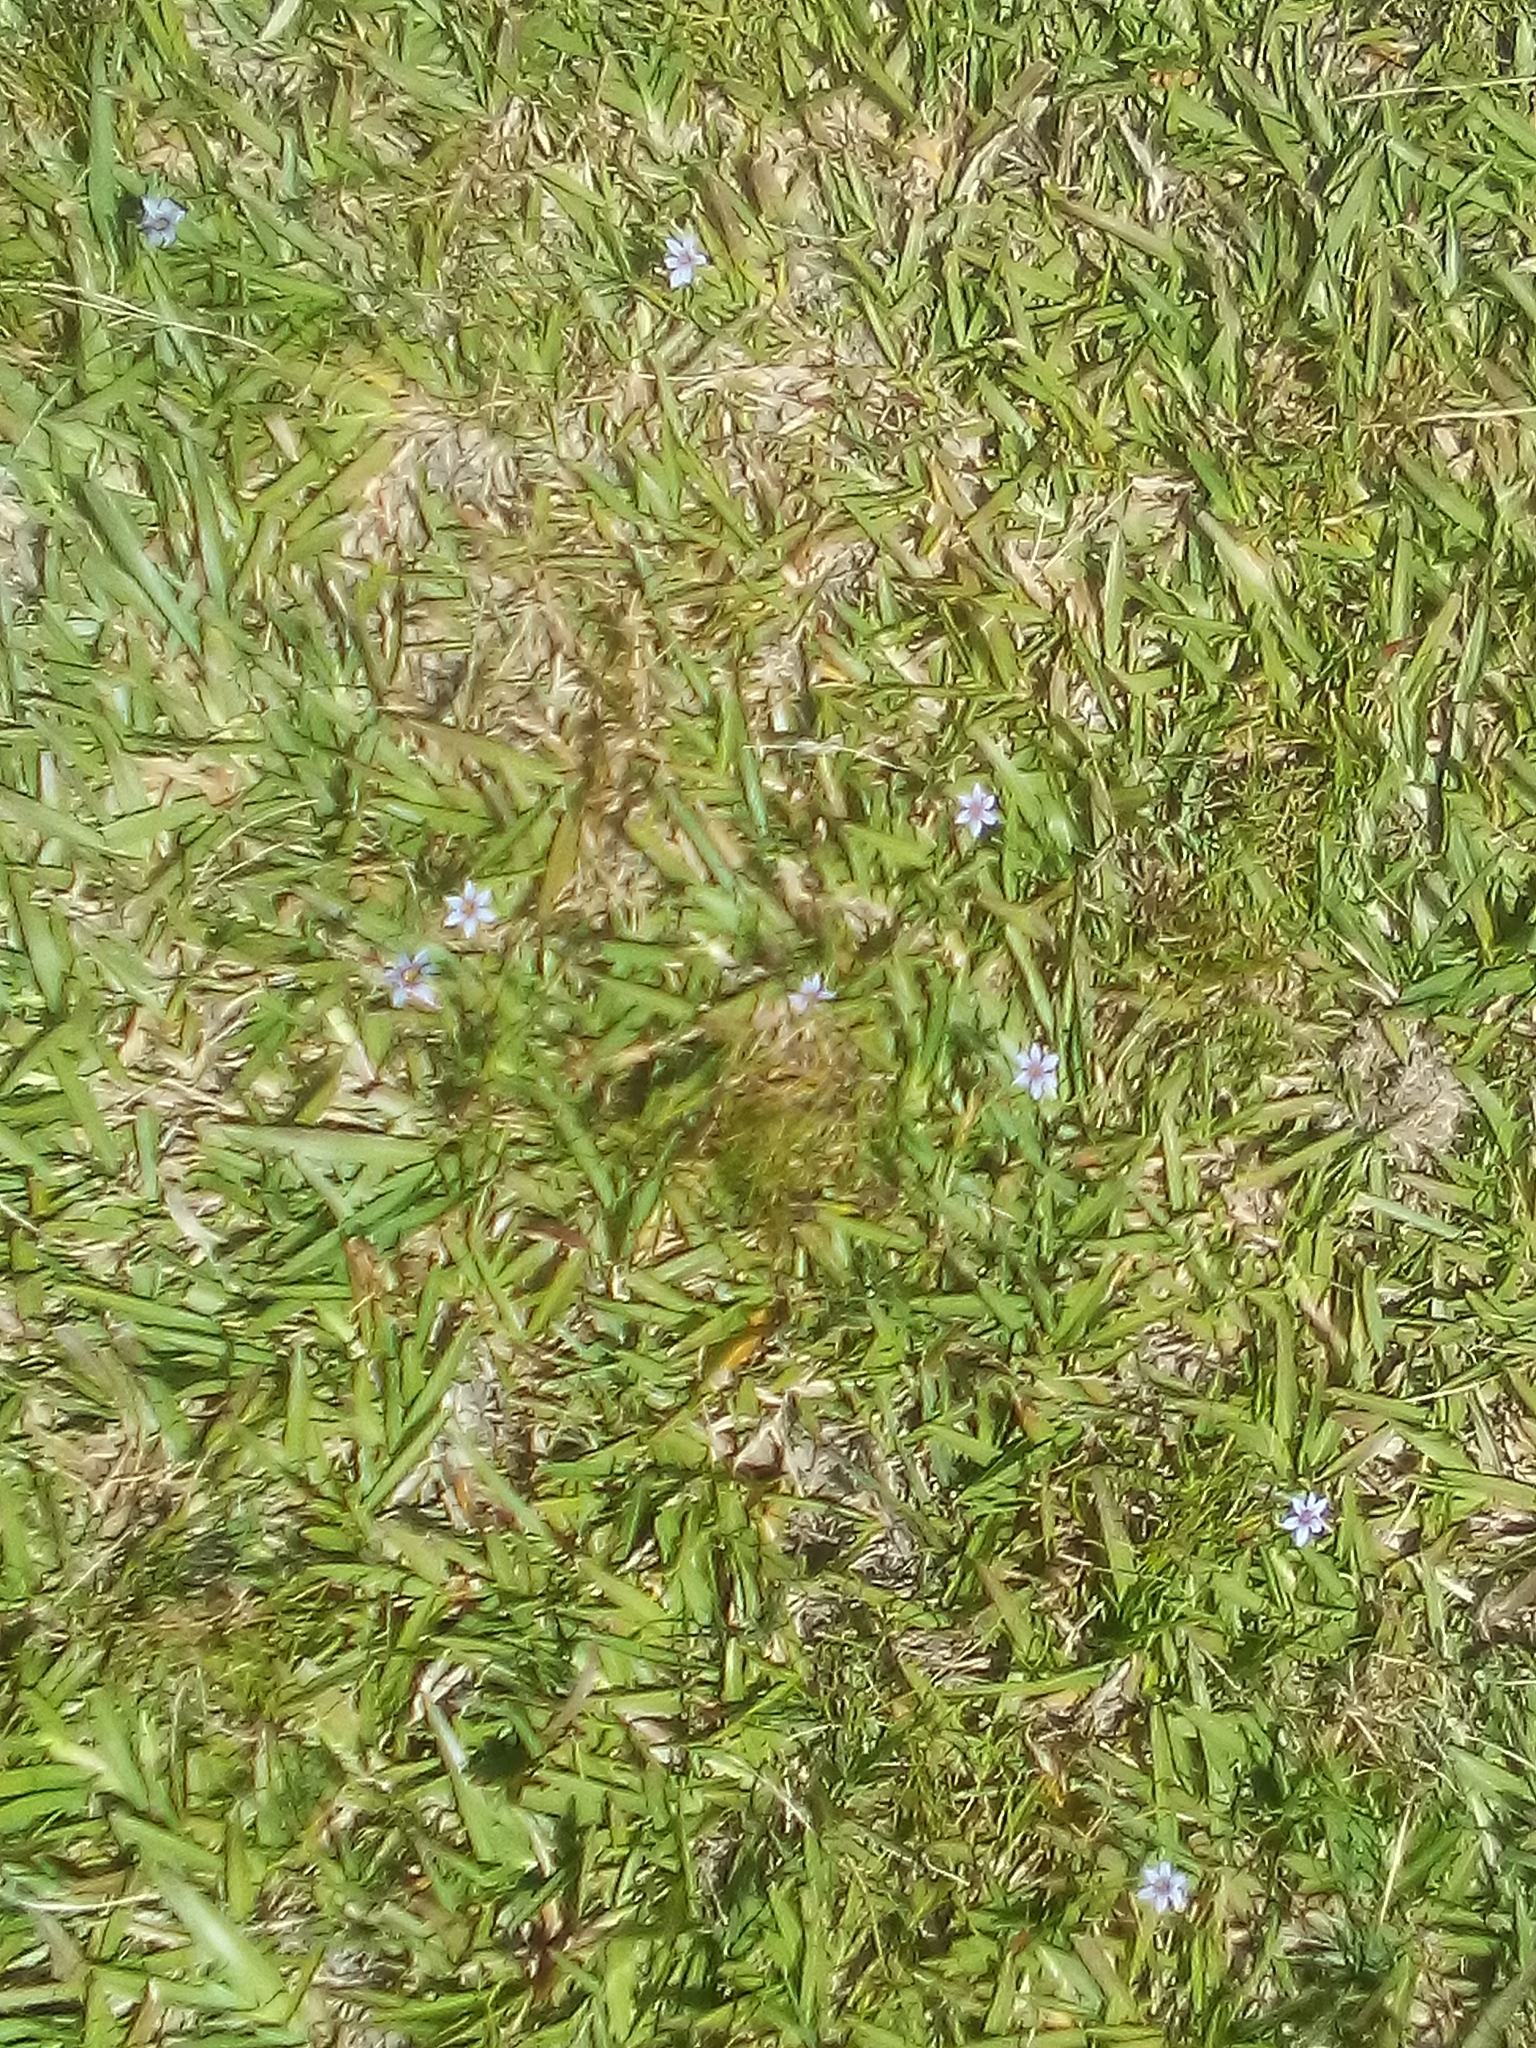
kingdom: Plantae
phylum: Tracheophyta
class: Liliopsida
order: Asparagales
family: Iridaceae
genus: Sisyrinchium
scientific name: Sisyrinchium micranthum
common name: Bermuda pigroot
